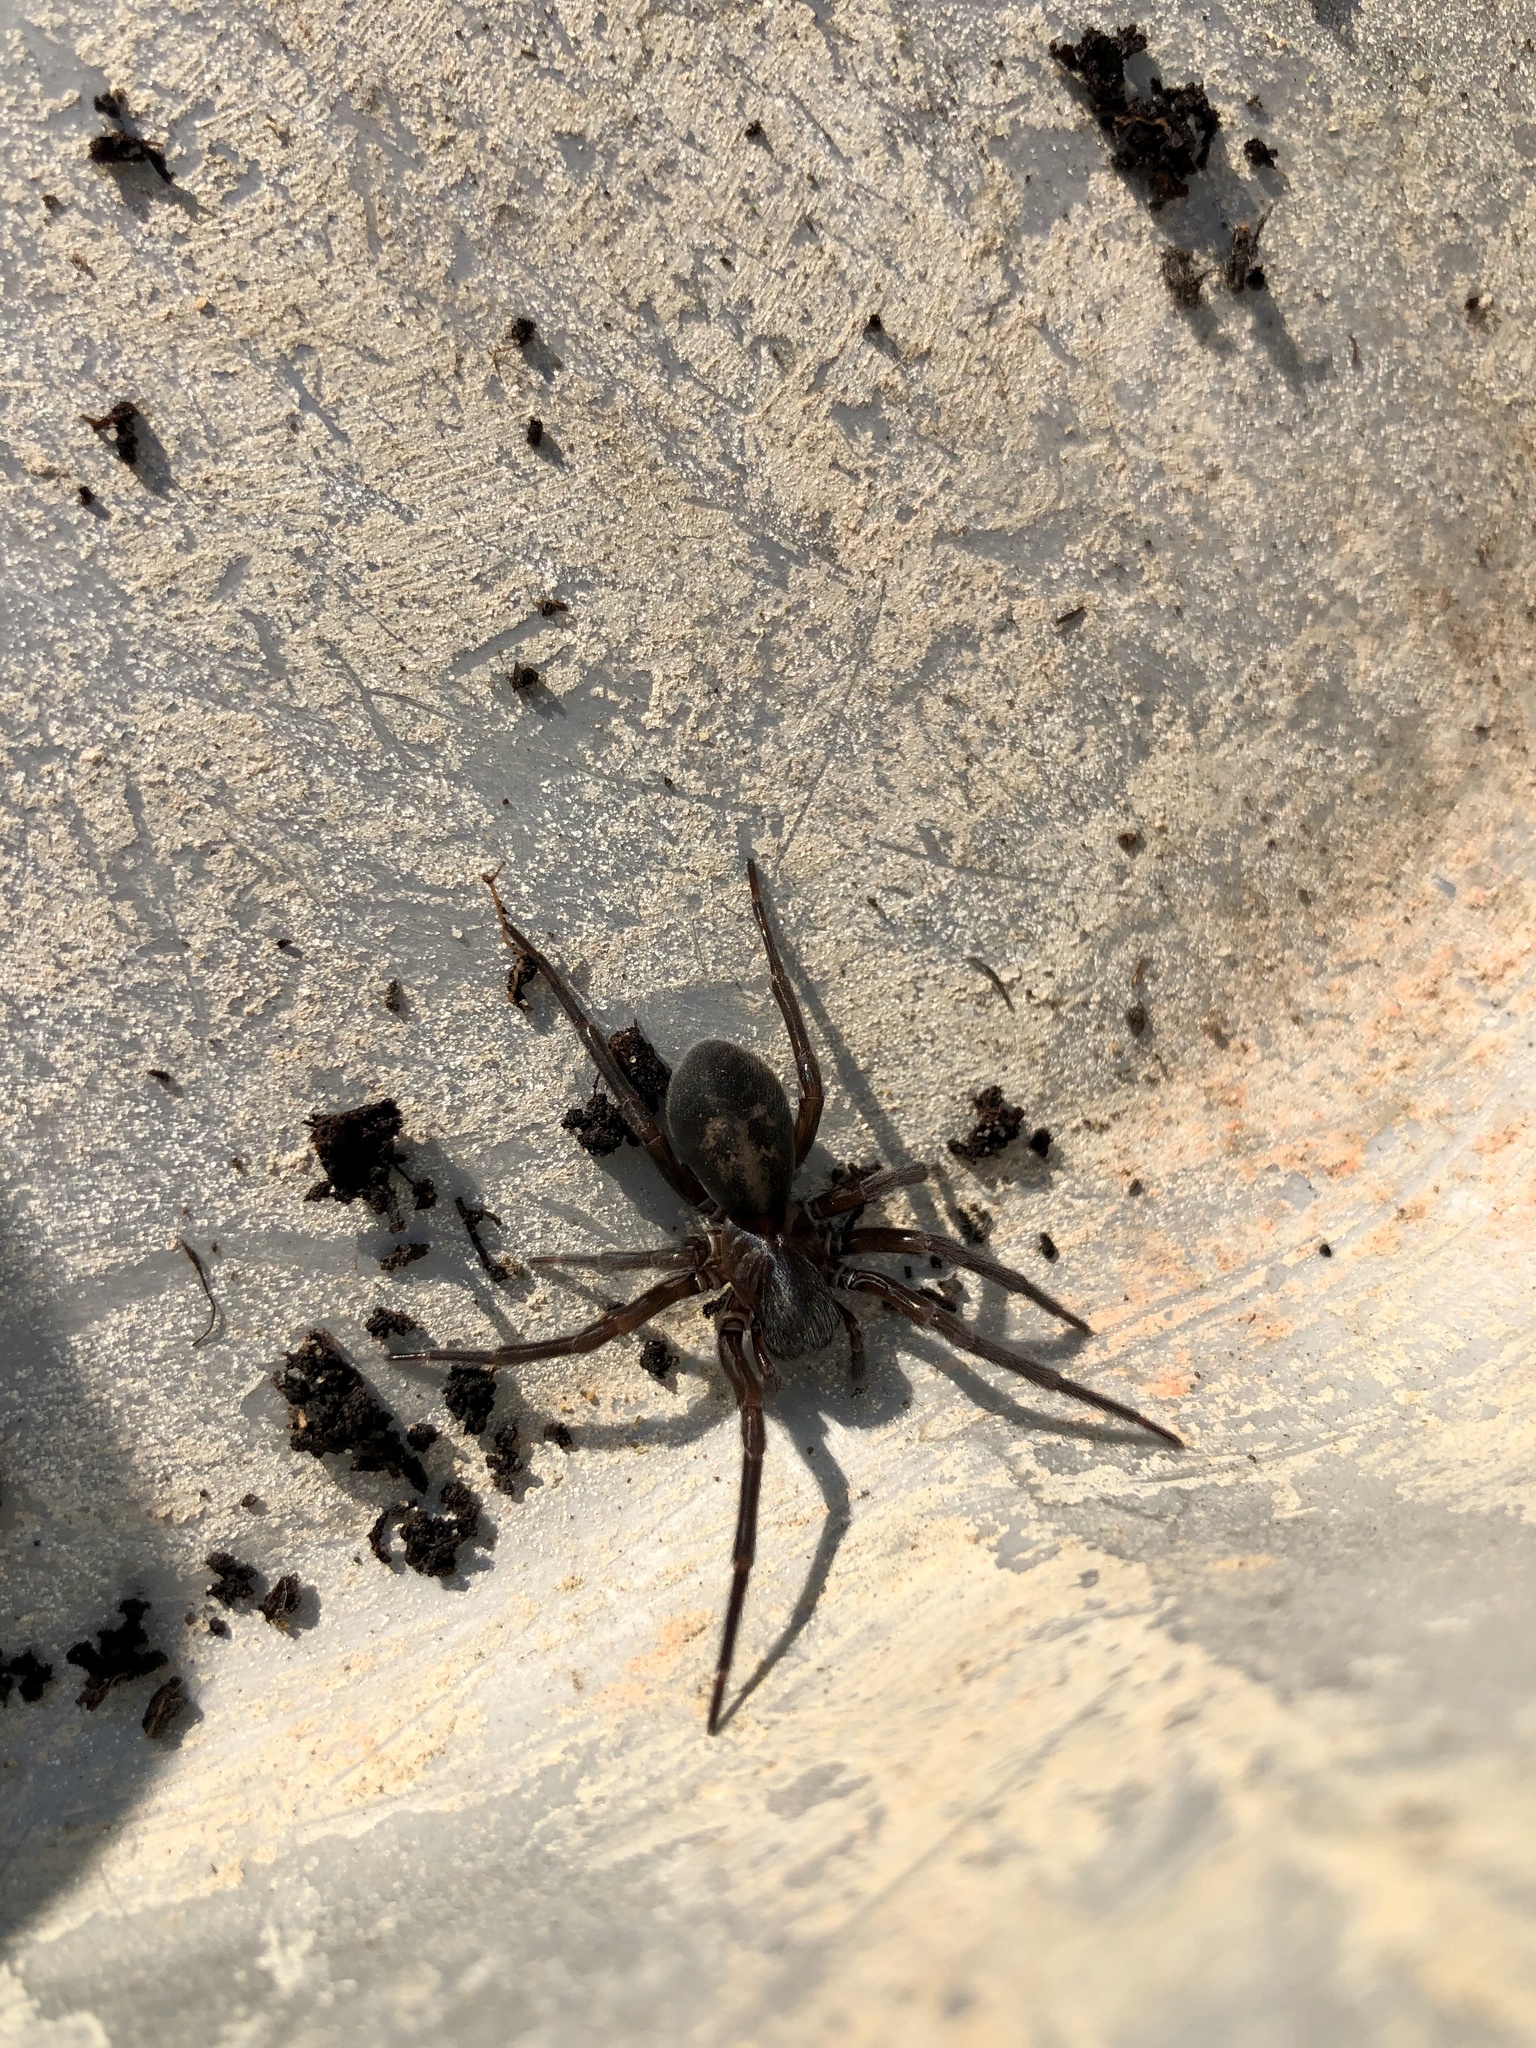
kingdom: Animalia
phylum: Arthropoda
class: Arachnida
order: Araneae
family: Amaurobiidae
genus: Amaurobius
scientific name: Amaurobius ferox
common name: Black laceweaver
